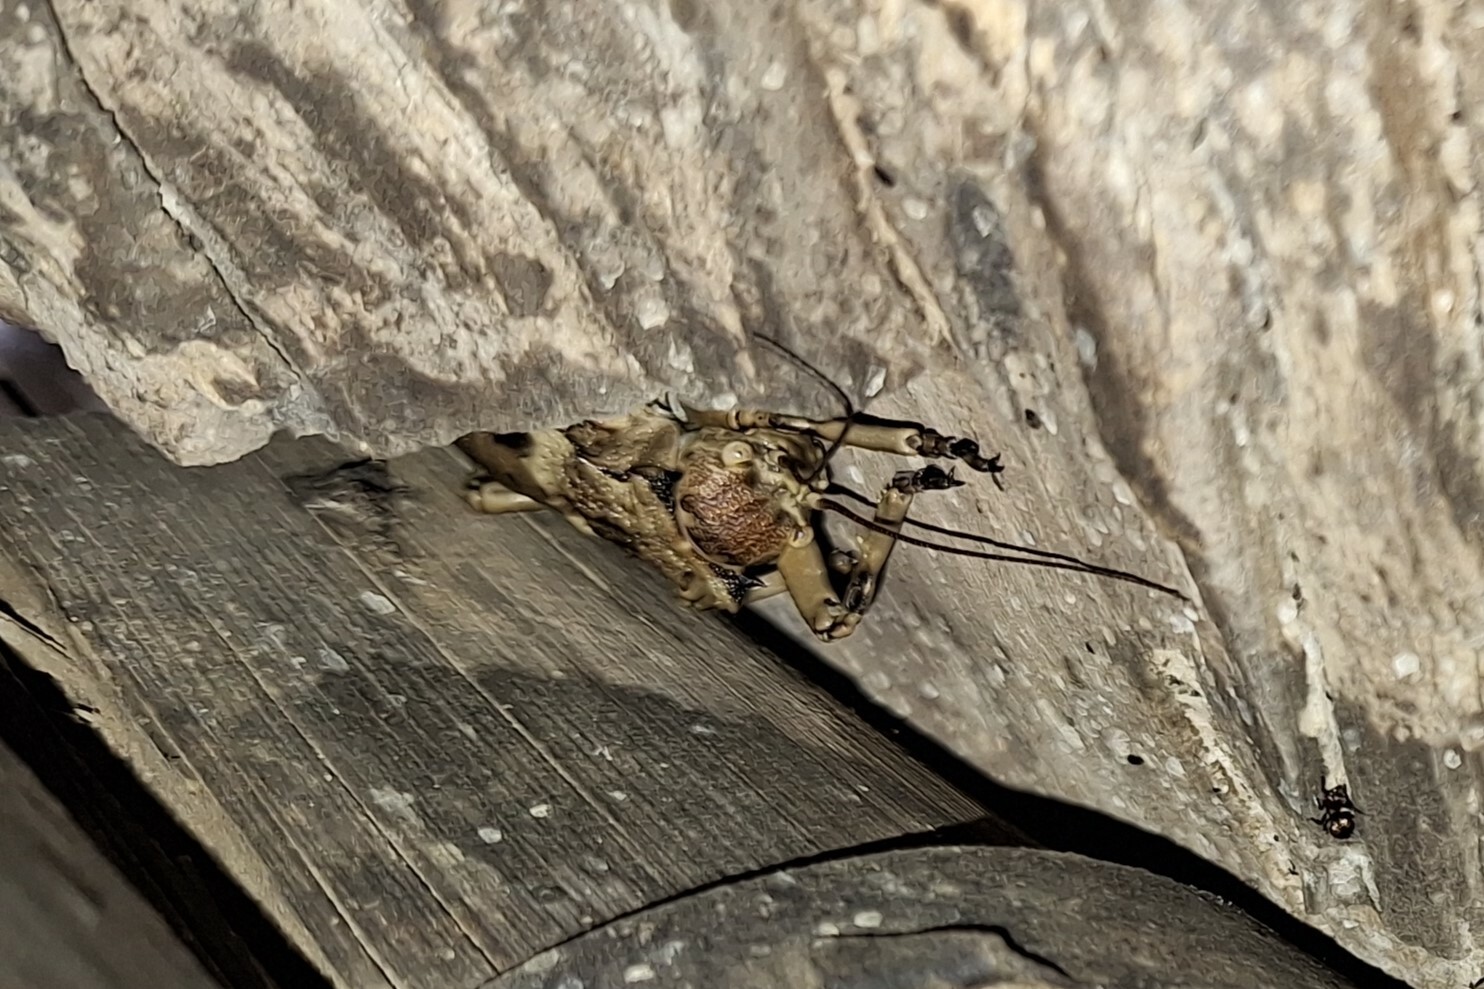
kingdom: Animalia
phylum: Arthropoda
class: Insecta
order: Orthoptera
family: Tettigoniidae
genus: Enyaliopsis
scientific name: Enyaliopsis transvaalensis
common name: Northern armoured katydid
